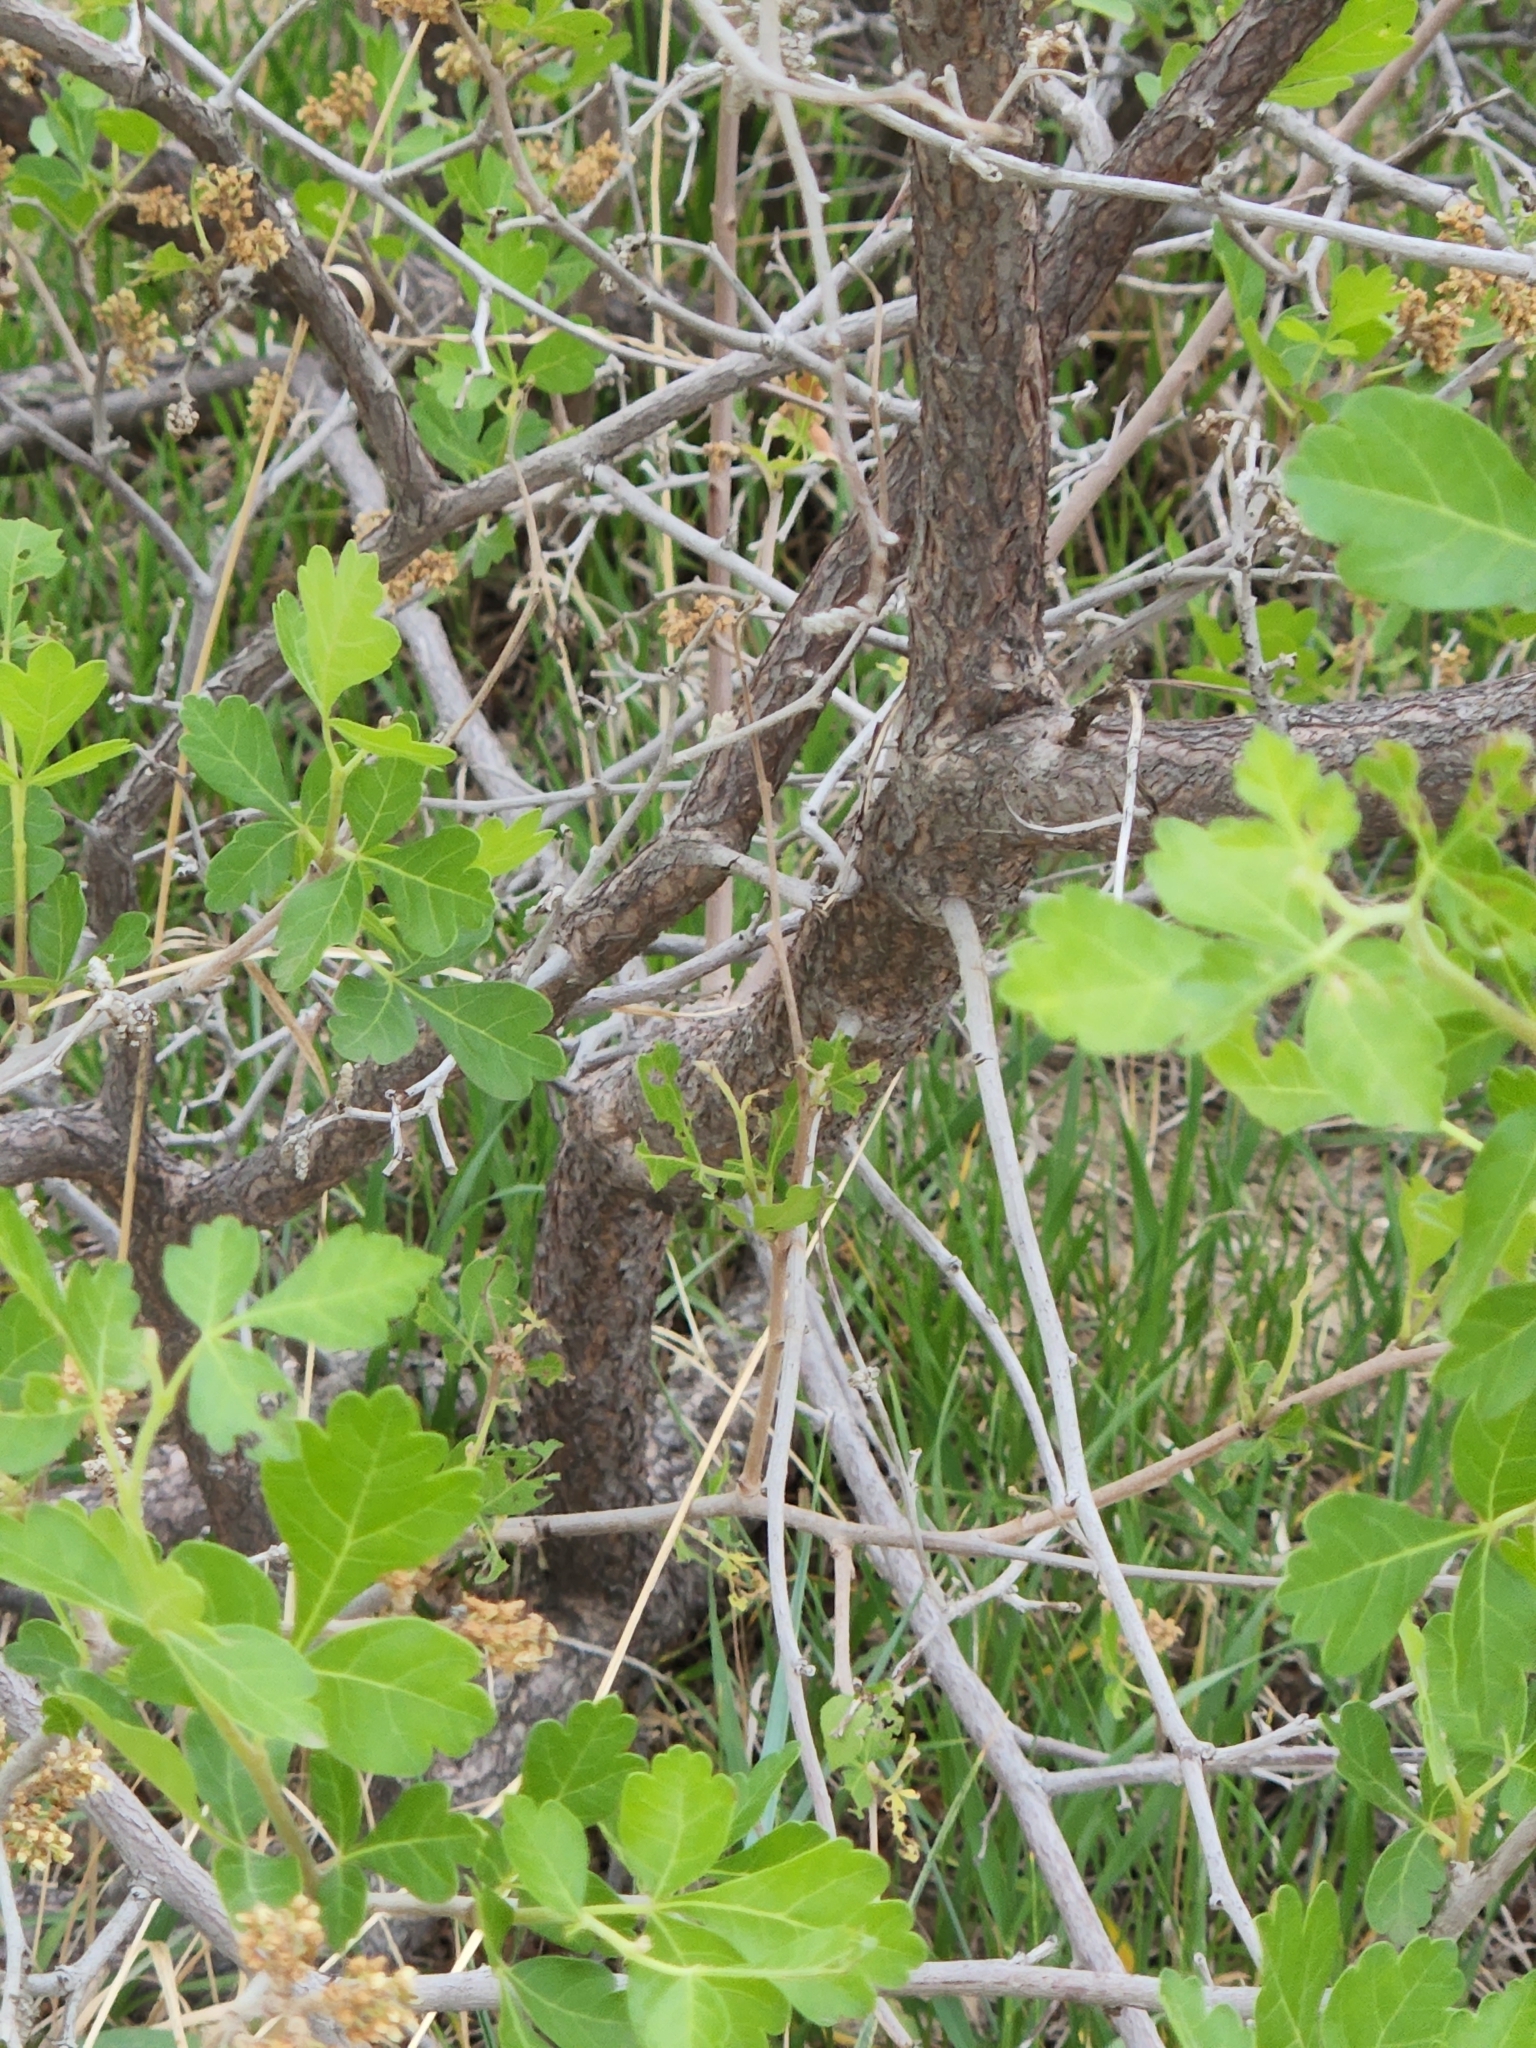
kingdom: Plantae
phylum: Tracheophyta
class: Magnoliopsida
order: Sapindales
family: Anacardiaceae
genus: Rhus
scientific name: Rhus trilobata
